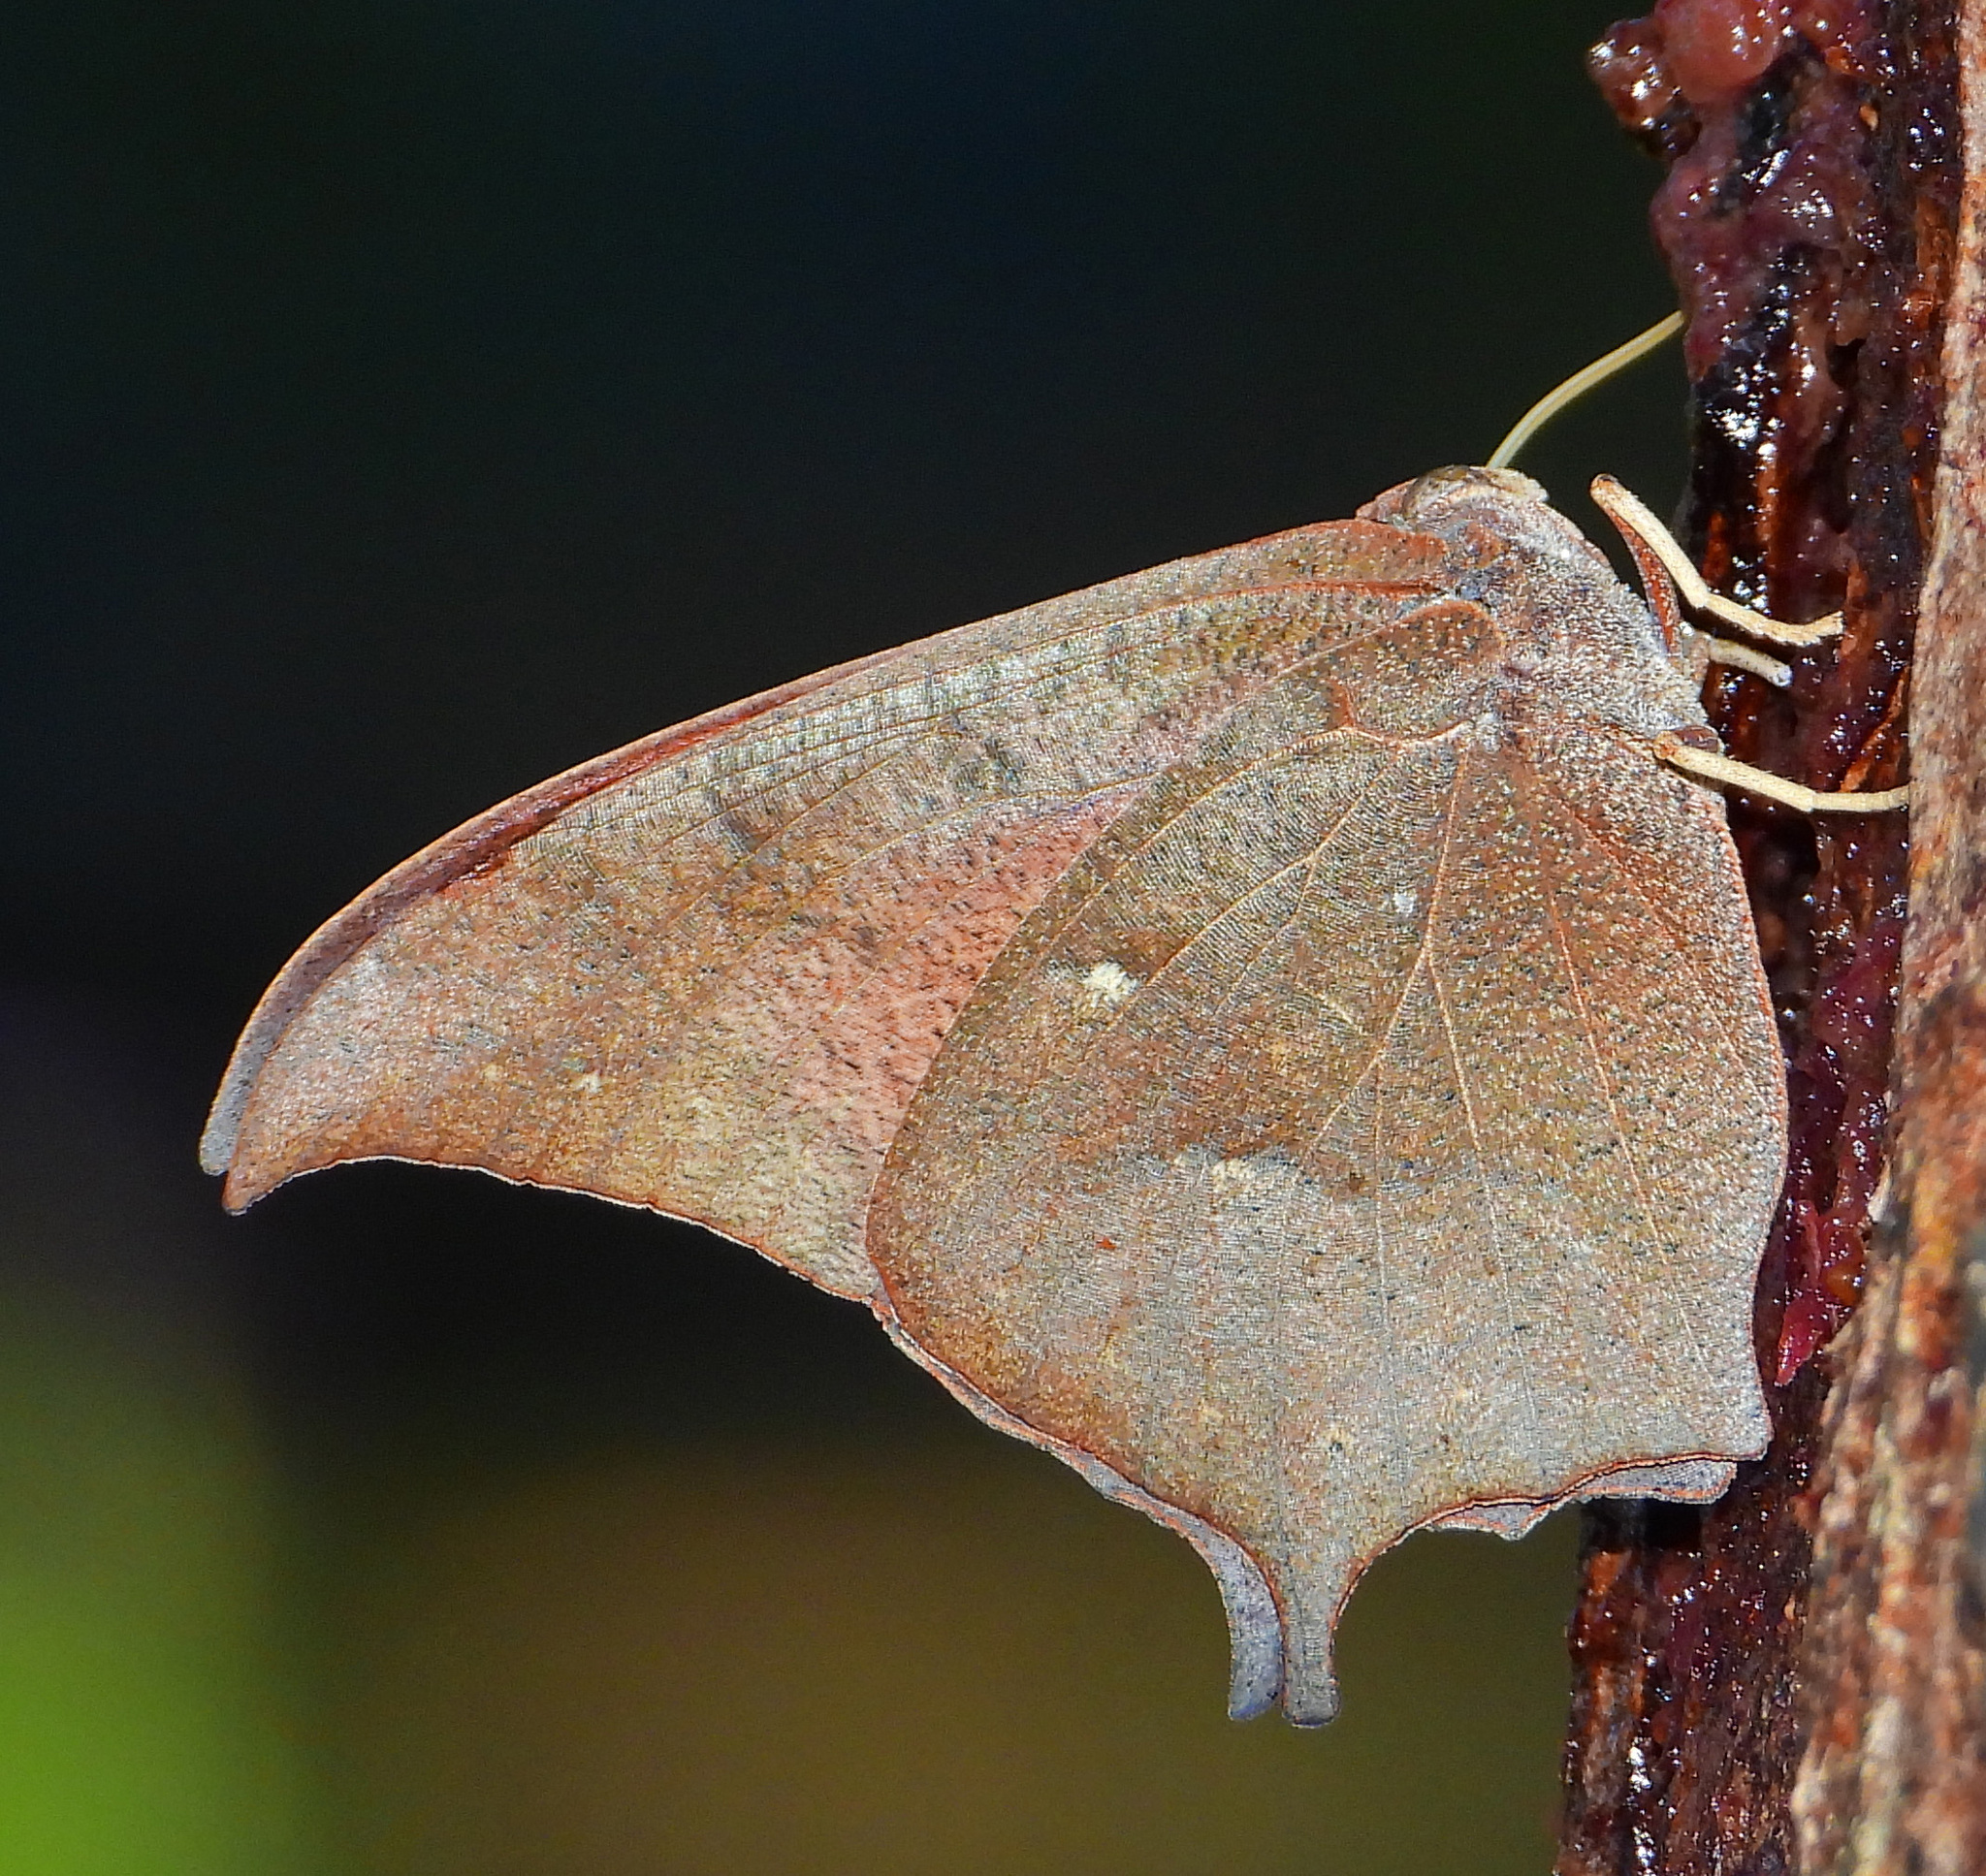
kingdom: Animalia
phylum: Arthropoda
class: Insecta
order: Lepidoptera
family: Nymphalidae
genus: Anaea
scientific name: Anaea andria
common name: Goatweed leafwing
